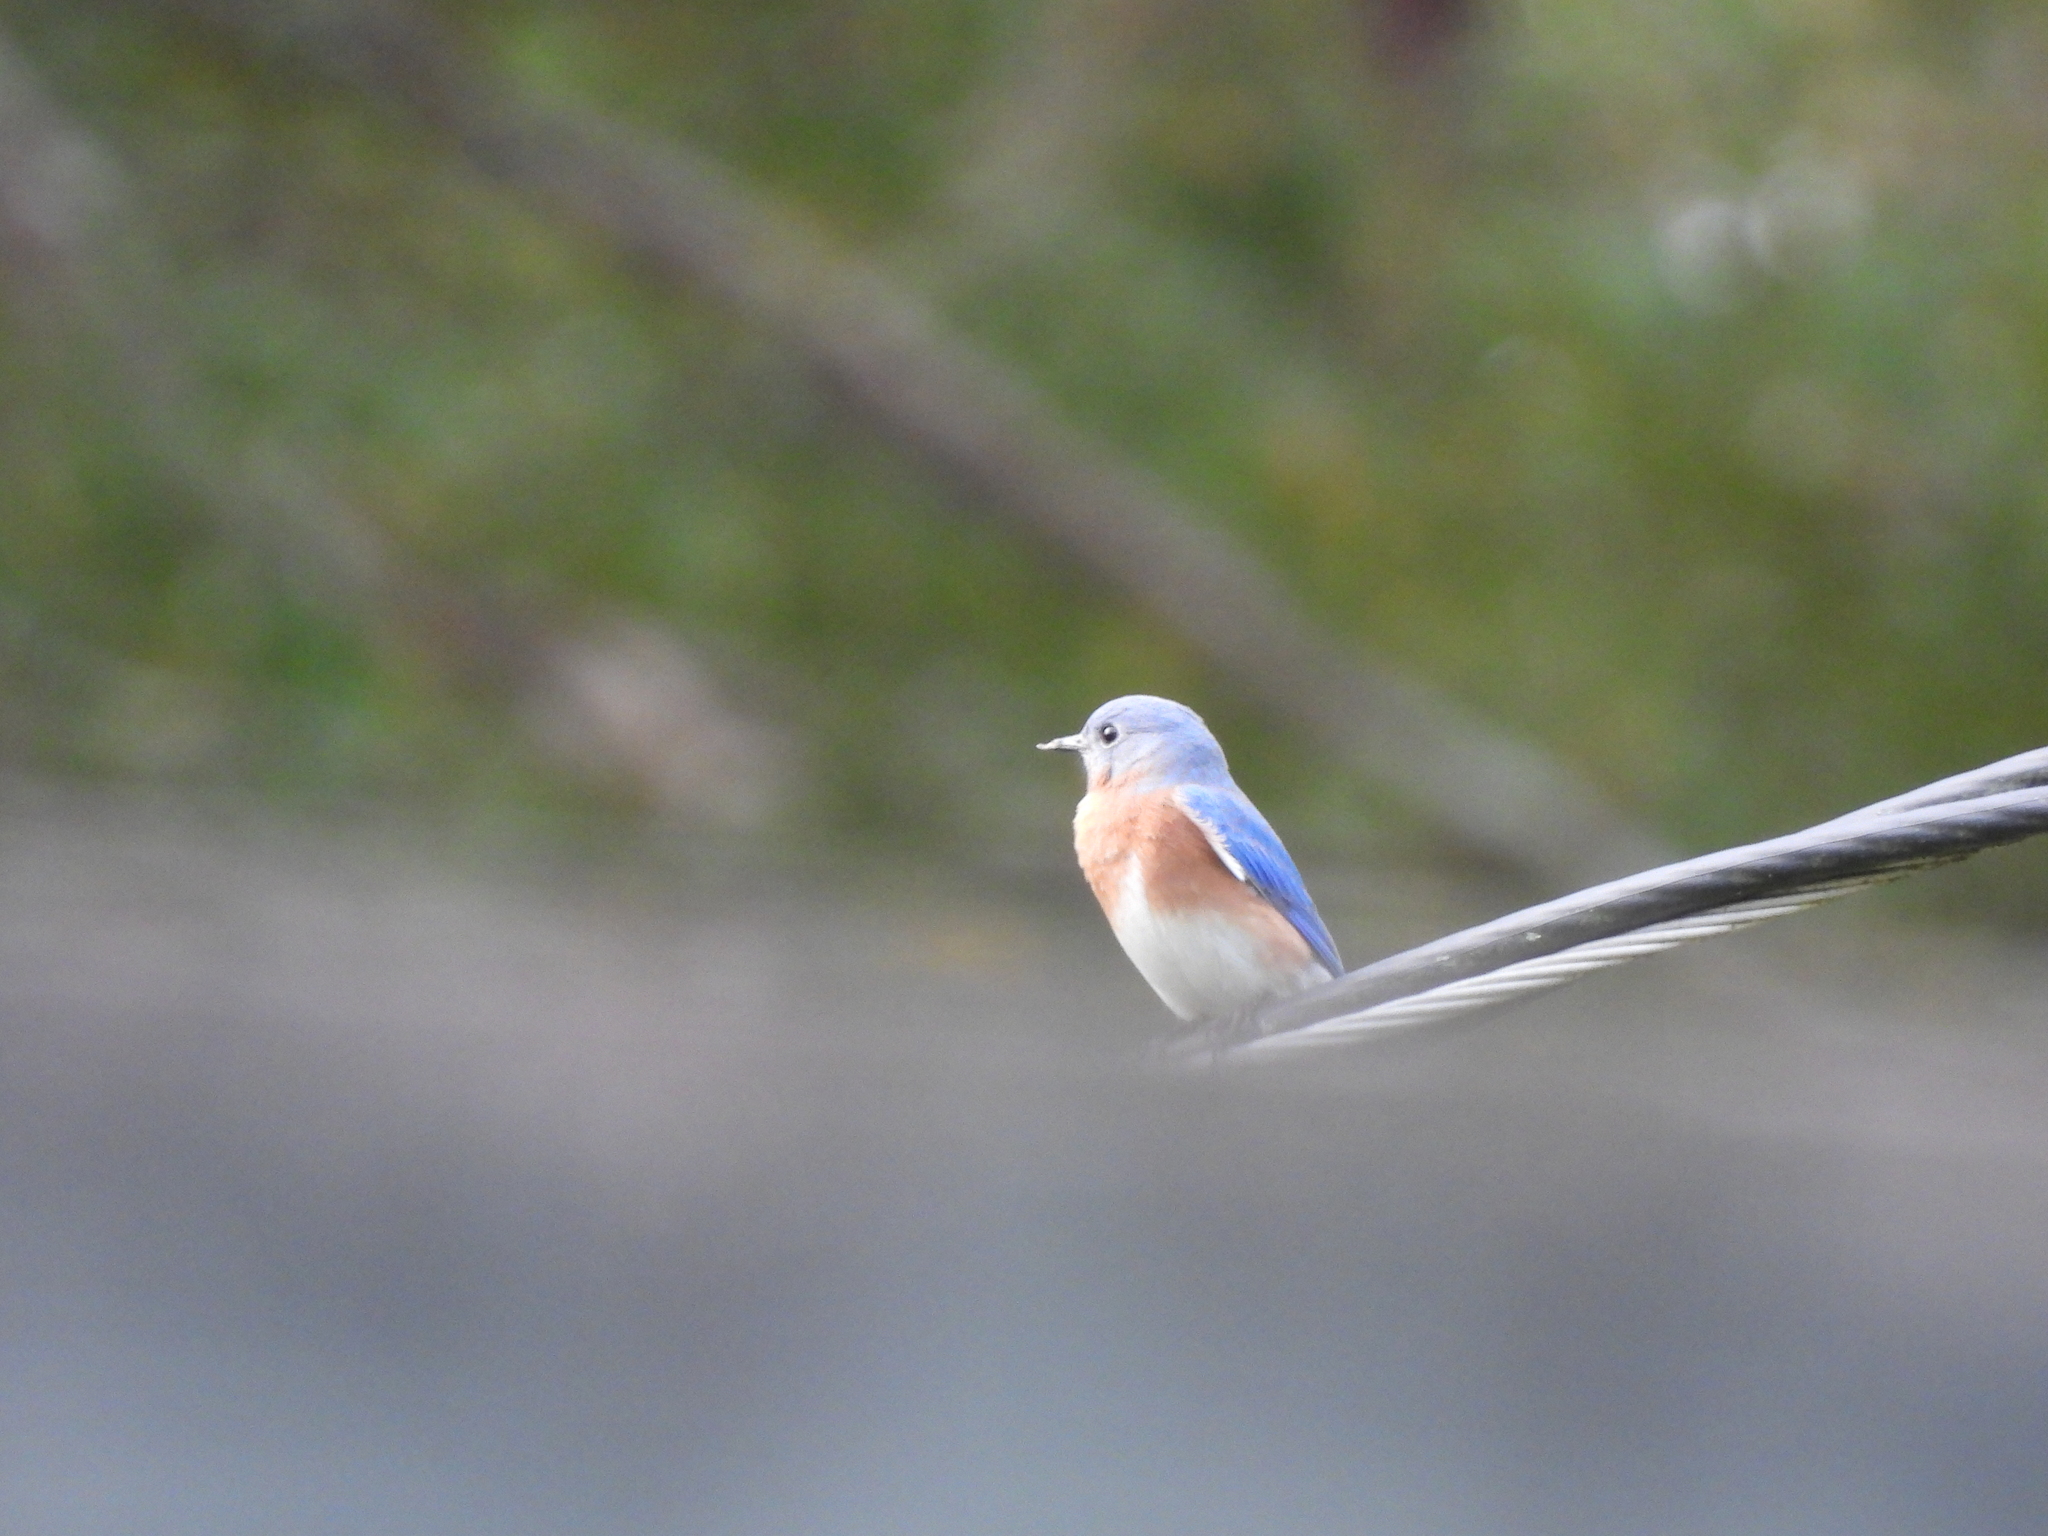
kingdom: Animalia
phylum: Chordata
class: Aves
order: Passeriformes
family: Turdidae
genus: Sialia
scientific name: Sialia sialis
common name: Eastern bluebird
